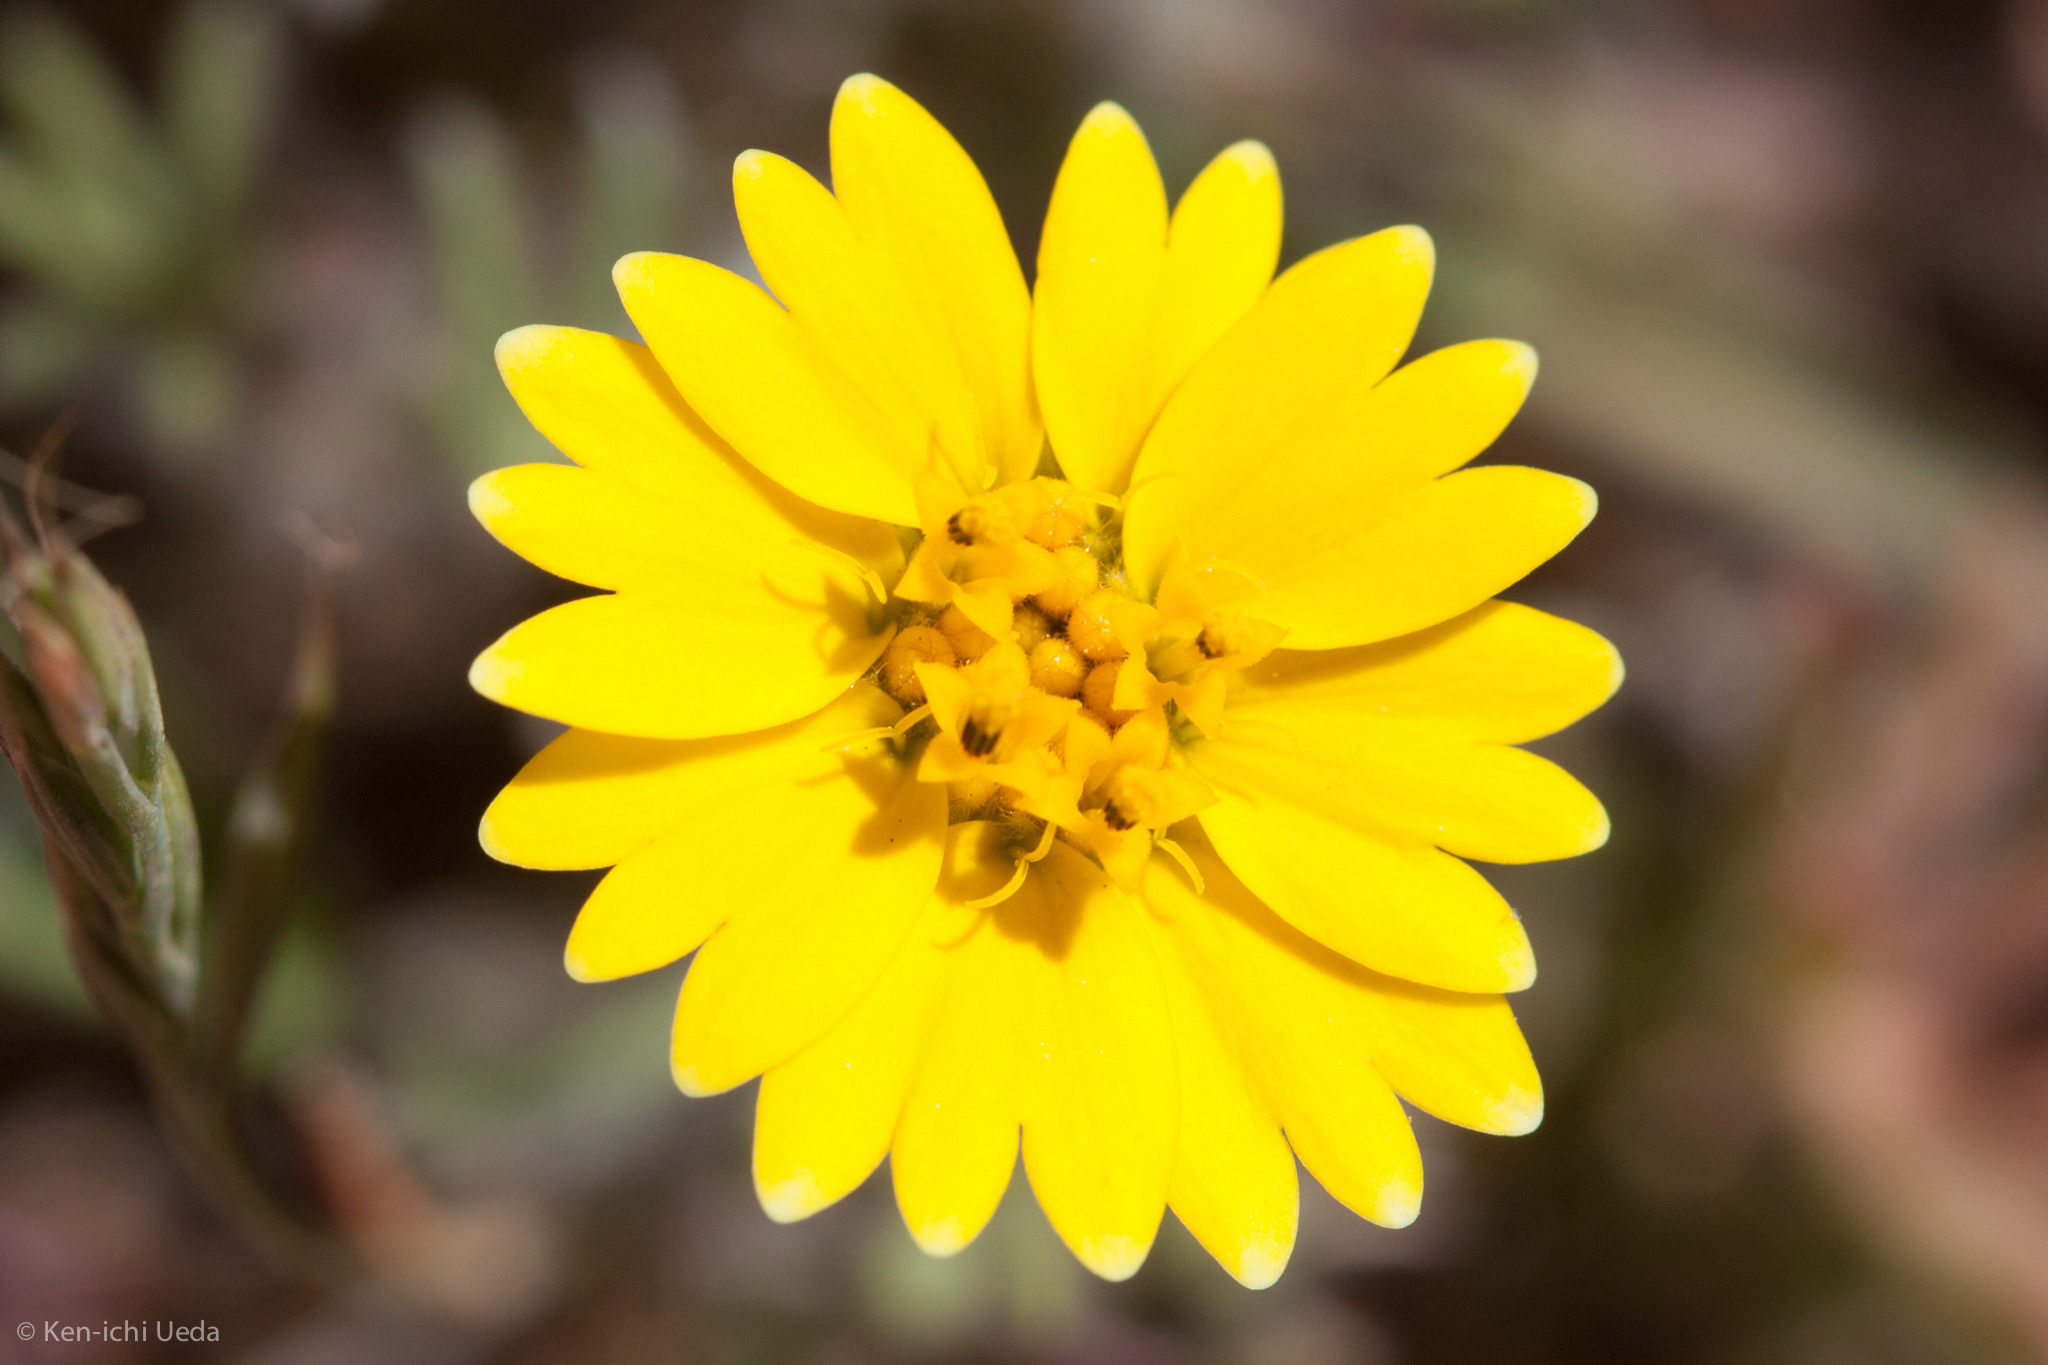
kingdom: Plantae
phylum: Tracheophyta
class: Magnoliopsida
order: Asterales
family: Asteraceae
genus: Layia
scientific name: Layia platyglossa
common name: Tidy-tips
